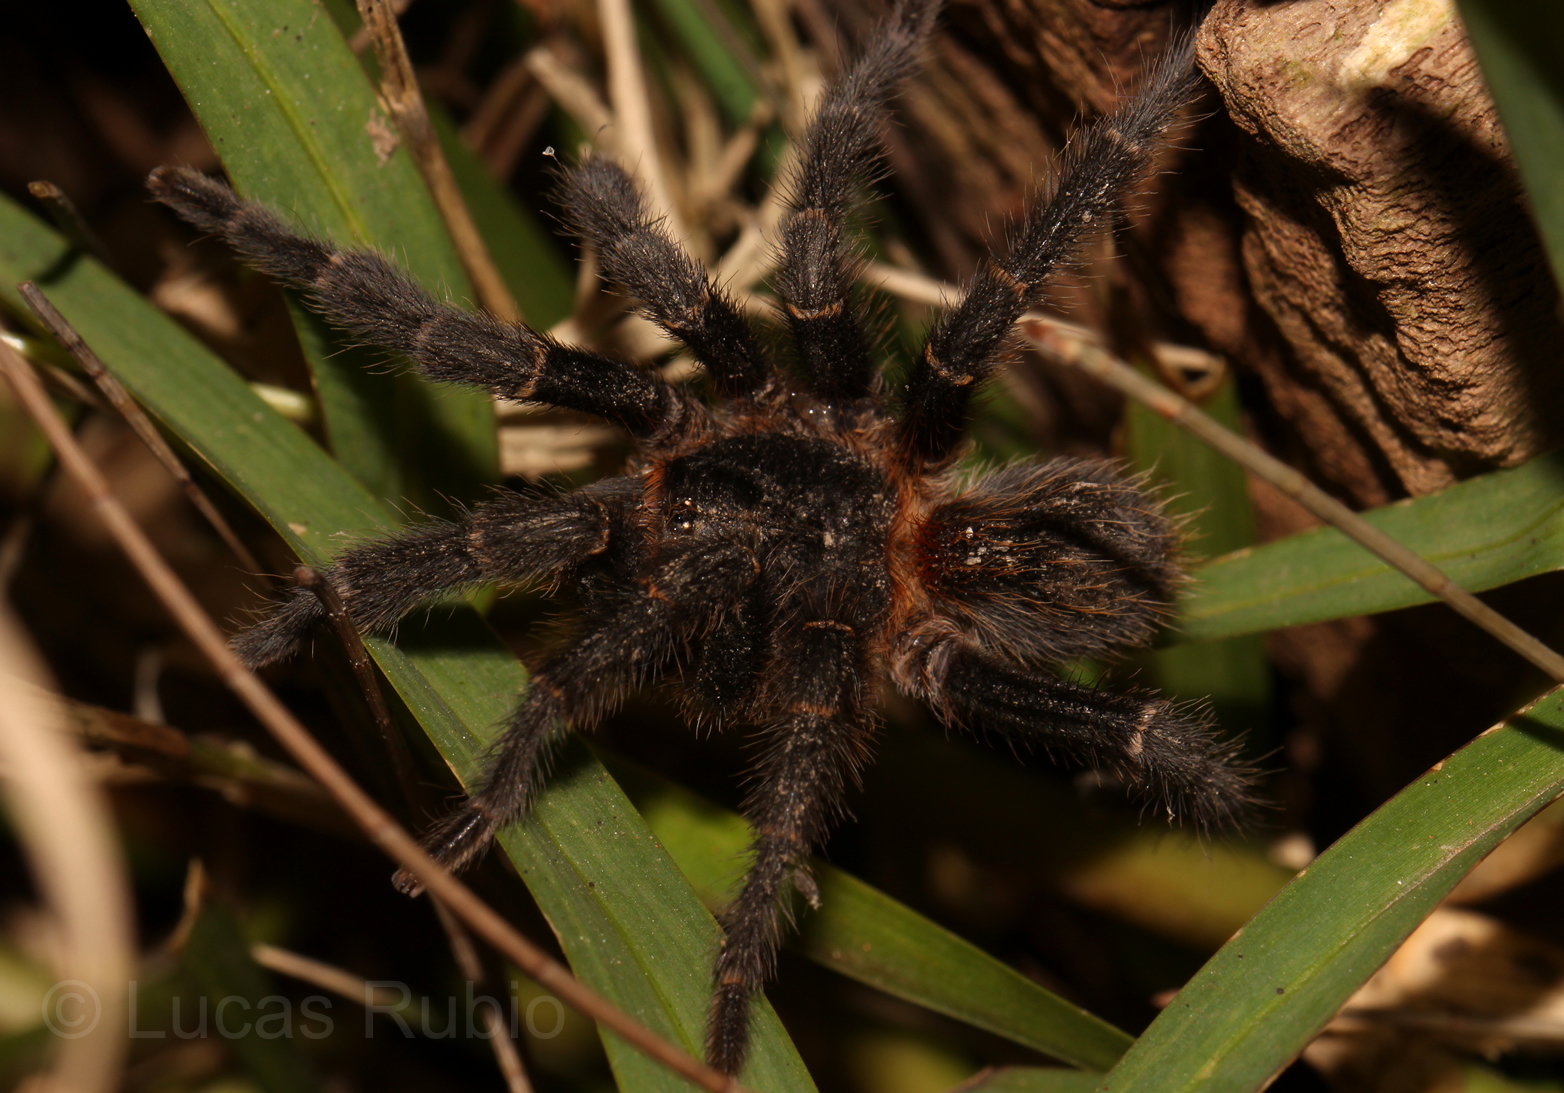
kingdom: Animalia
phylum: Arthropoda
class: Arachnida
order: Araneae
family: Theraphosidae
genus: Homoeomma
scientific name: Homoeomma uruguayense
